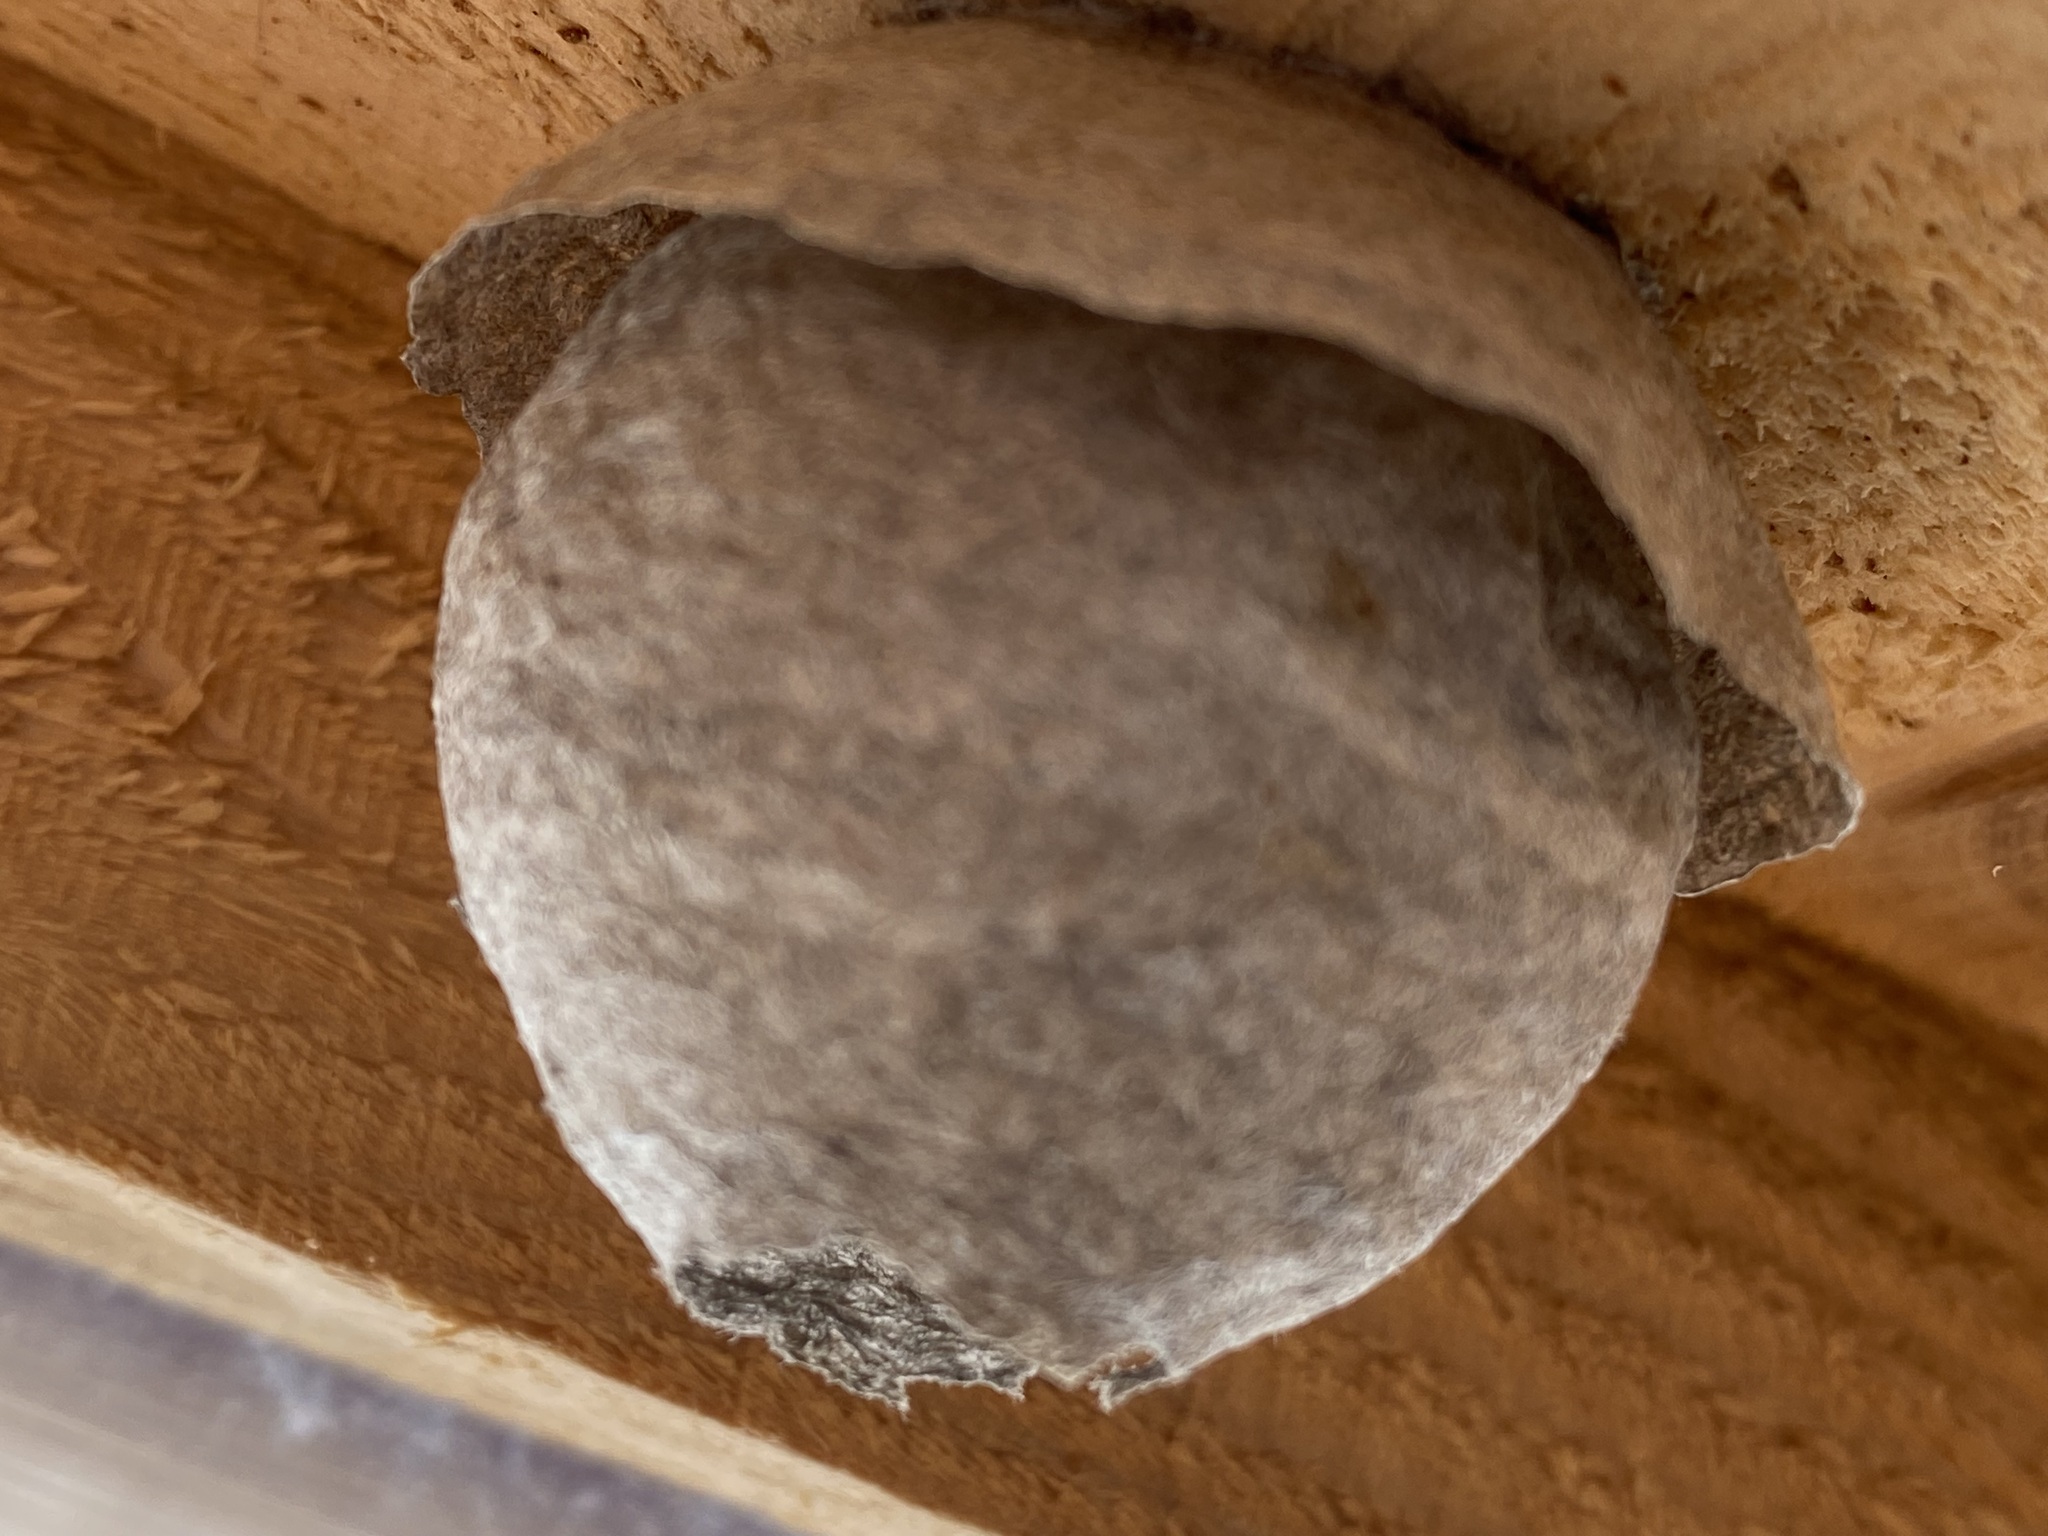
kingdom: Animalia
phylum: Arthropoda
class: Insecta
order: Hymenoptera
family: Vespidae
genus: Dolichovespula
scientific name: Dolichovespula
